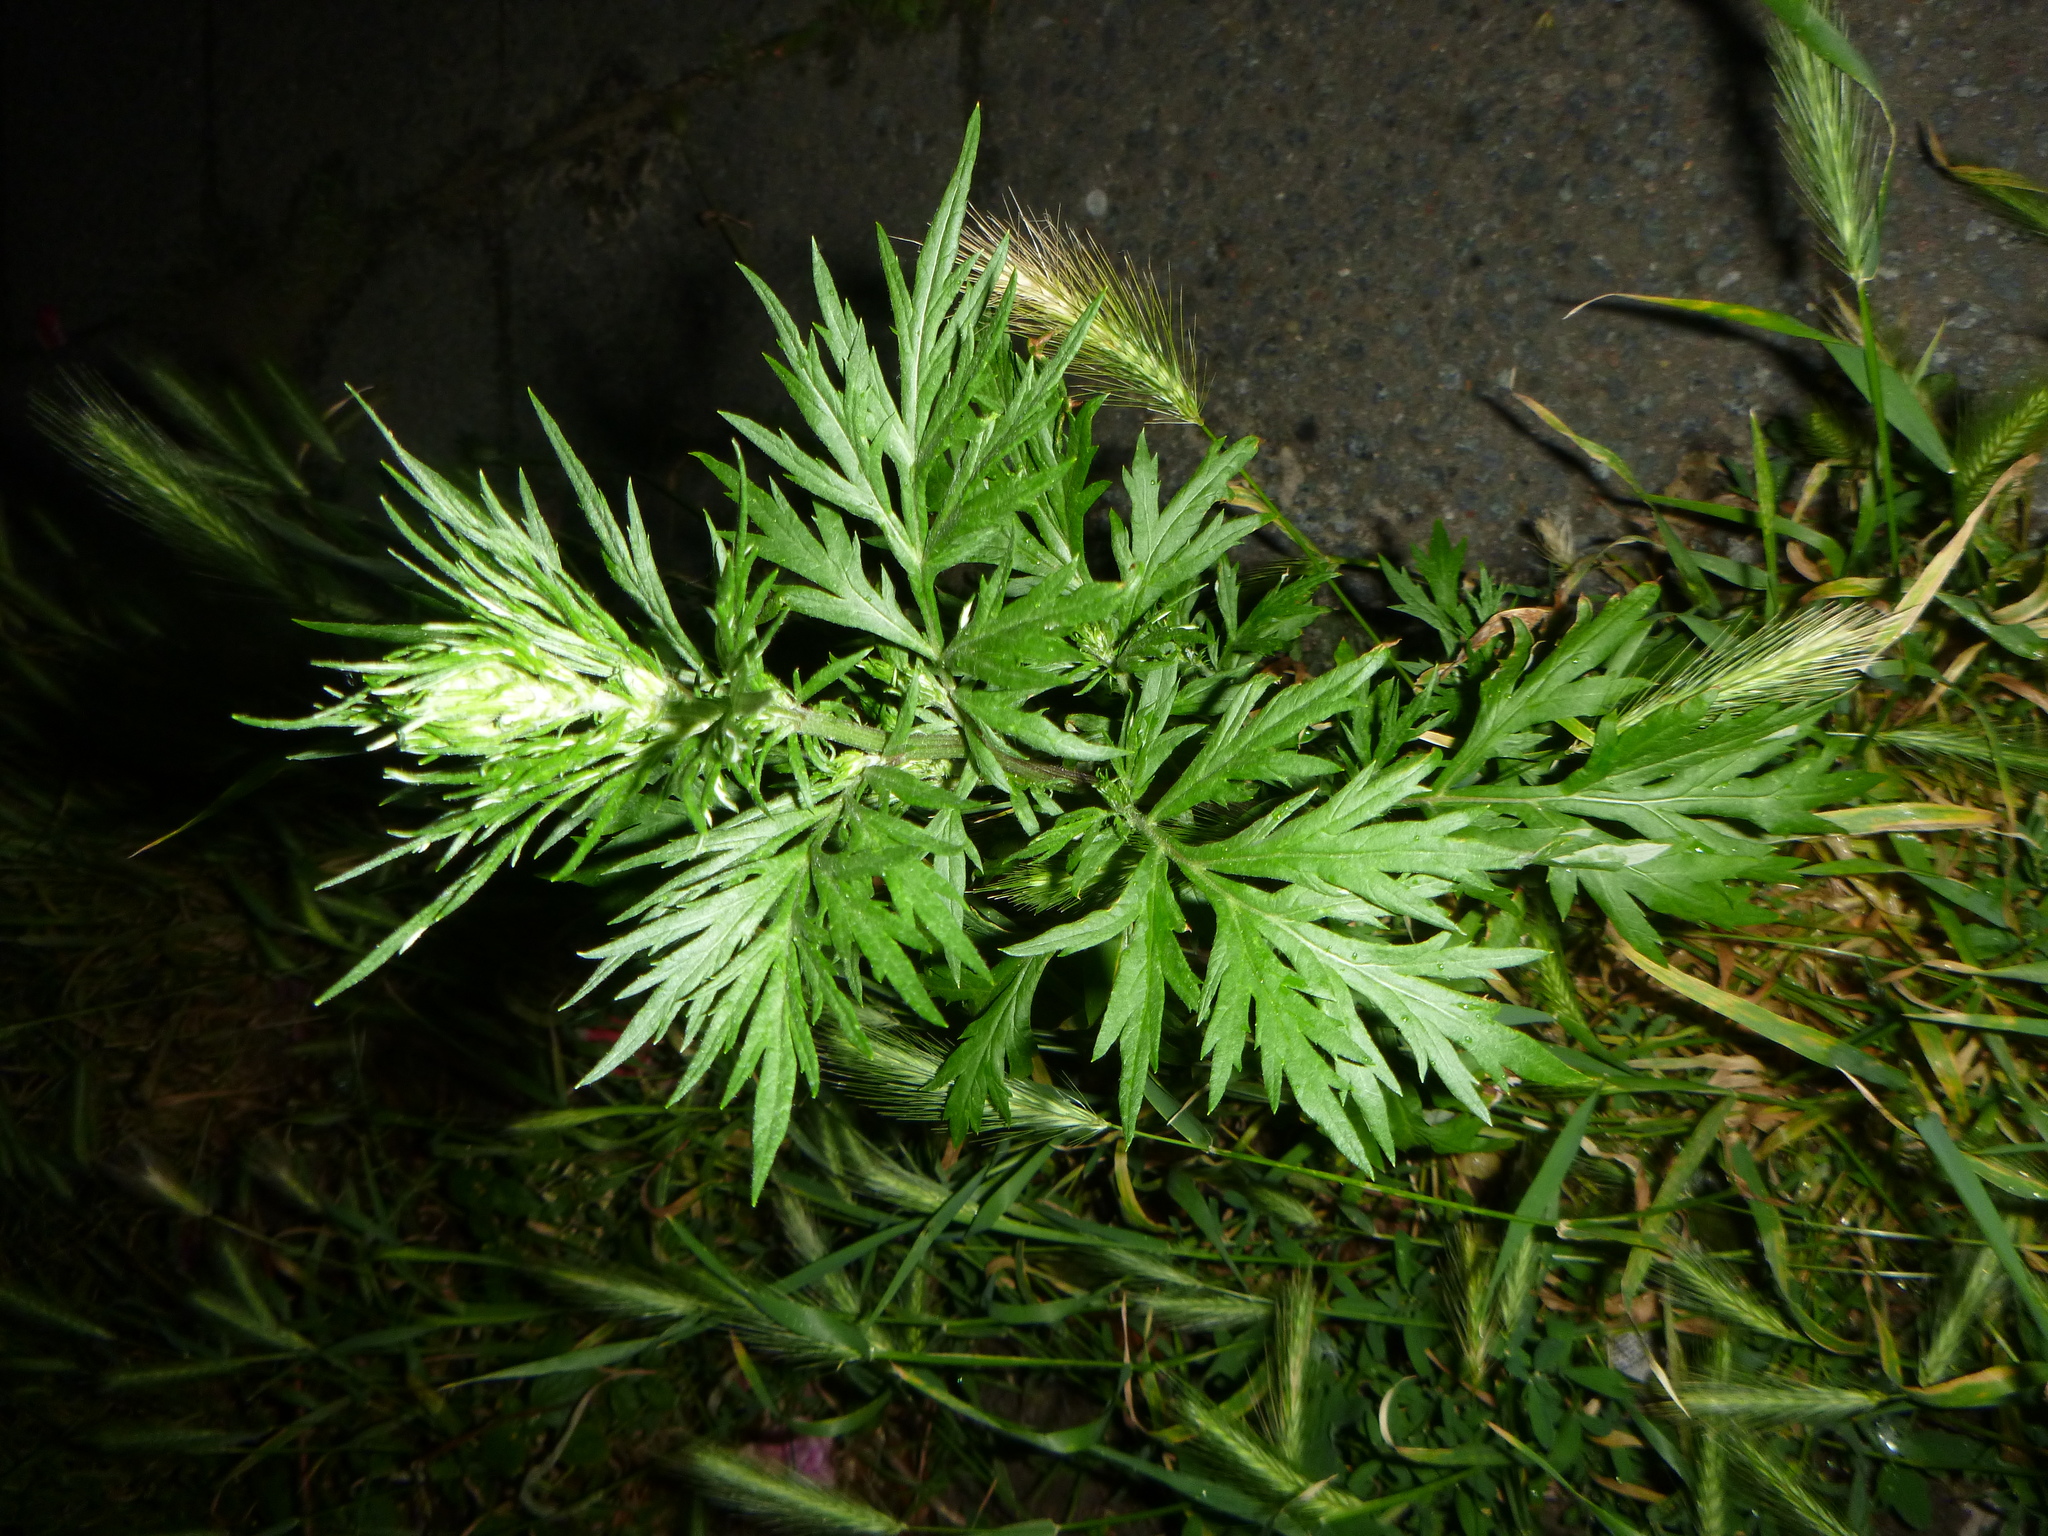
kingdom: Plantae
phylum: Tracheophyta
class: Magnoliopsida
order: Asterales
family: Asteraceae
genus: Artemisia
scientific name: Artemisia vulgaris
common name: Mugwort
